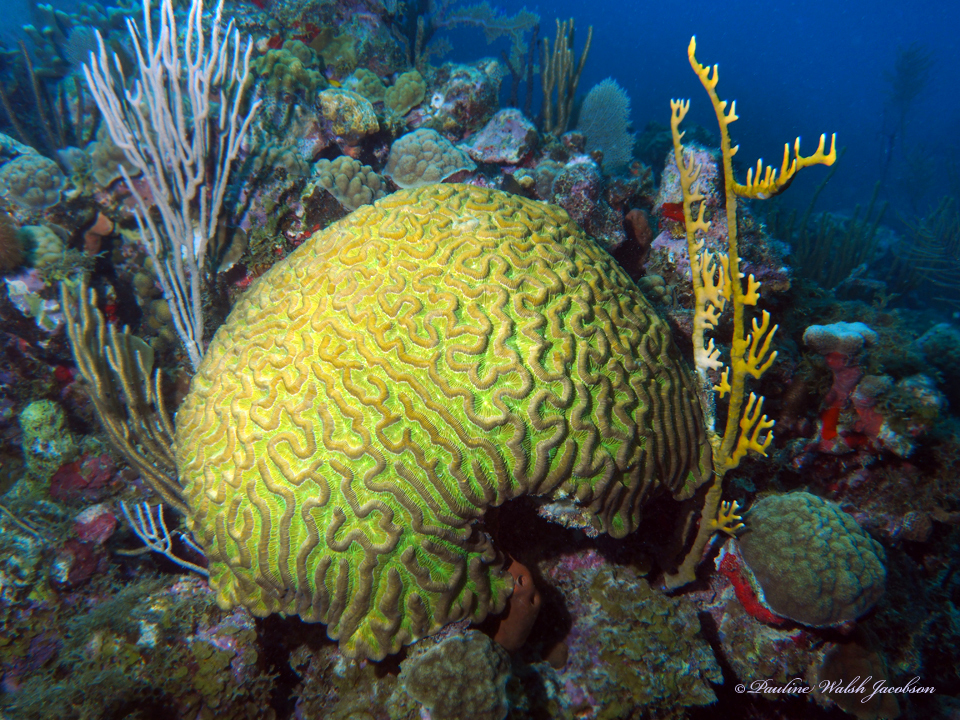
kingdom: Animalia
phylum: Cnidaria
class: Anthozoa
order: Scleractinia
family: Faviidae
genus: Colpophyllia
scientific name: Colpophyllia natans
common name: Boulder brain coral
